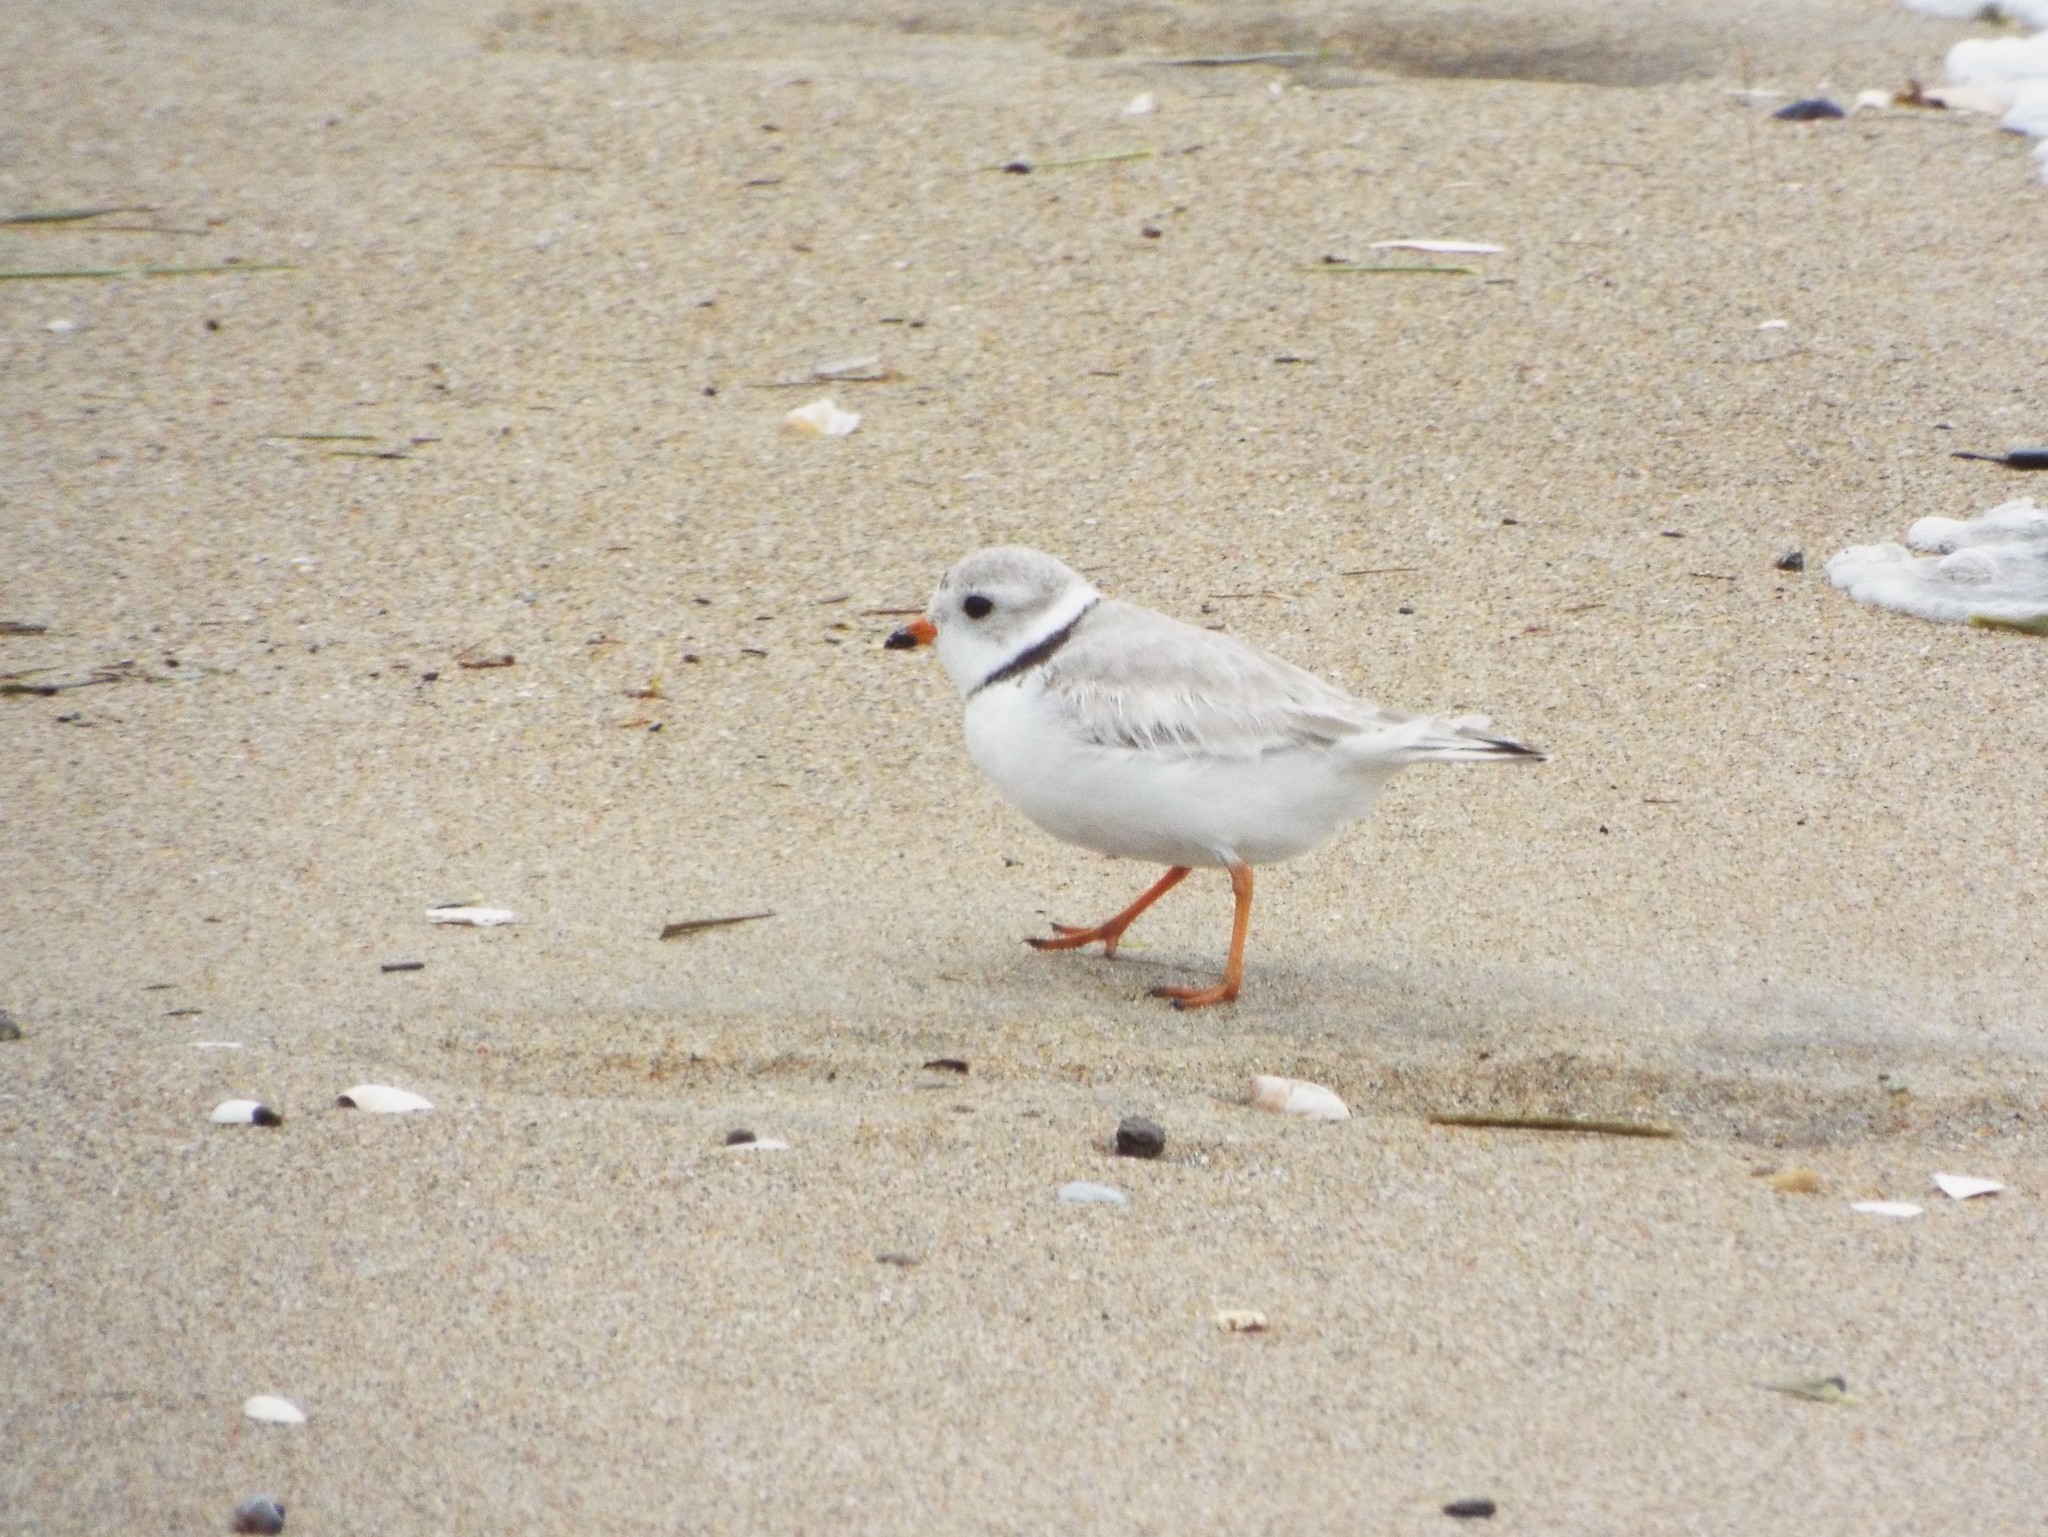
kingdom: Animalia
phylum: Chordata
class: Aves
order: Charadriiformes
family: Charadriidae
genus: Charadrius
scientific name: Charadrius melodus
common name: Piping plover
